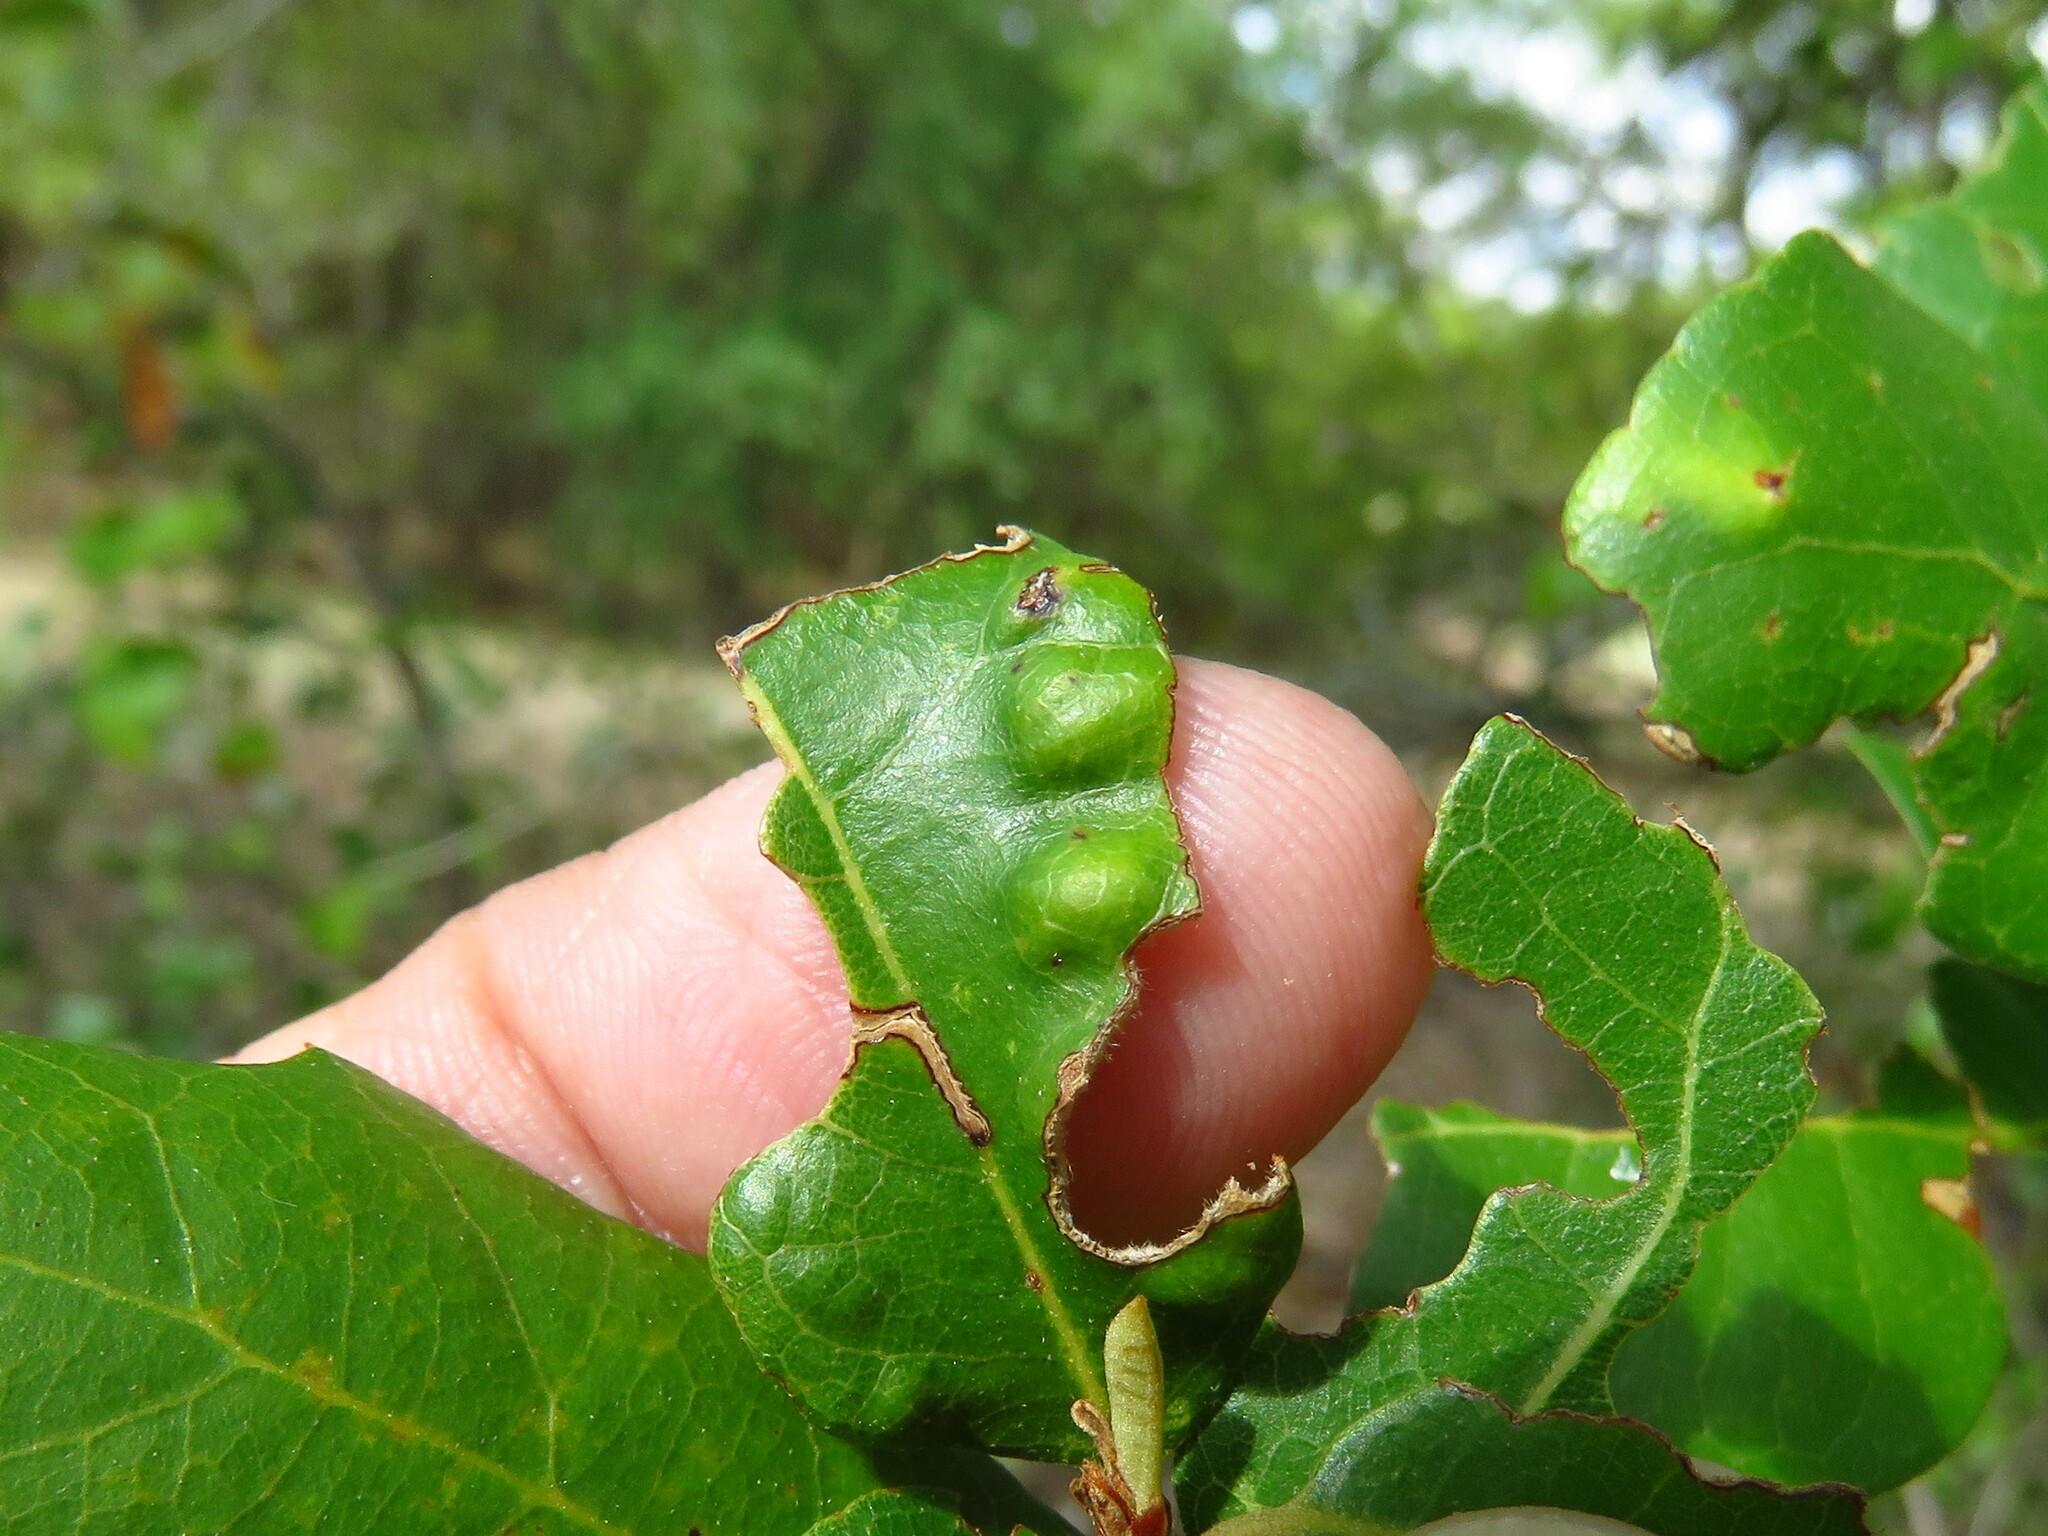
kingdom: Animalia
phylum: Arthropoda
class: Arachnida
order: Trombidiformes
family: Eriophyidae
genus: Aceria
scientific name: Aceria quercina
